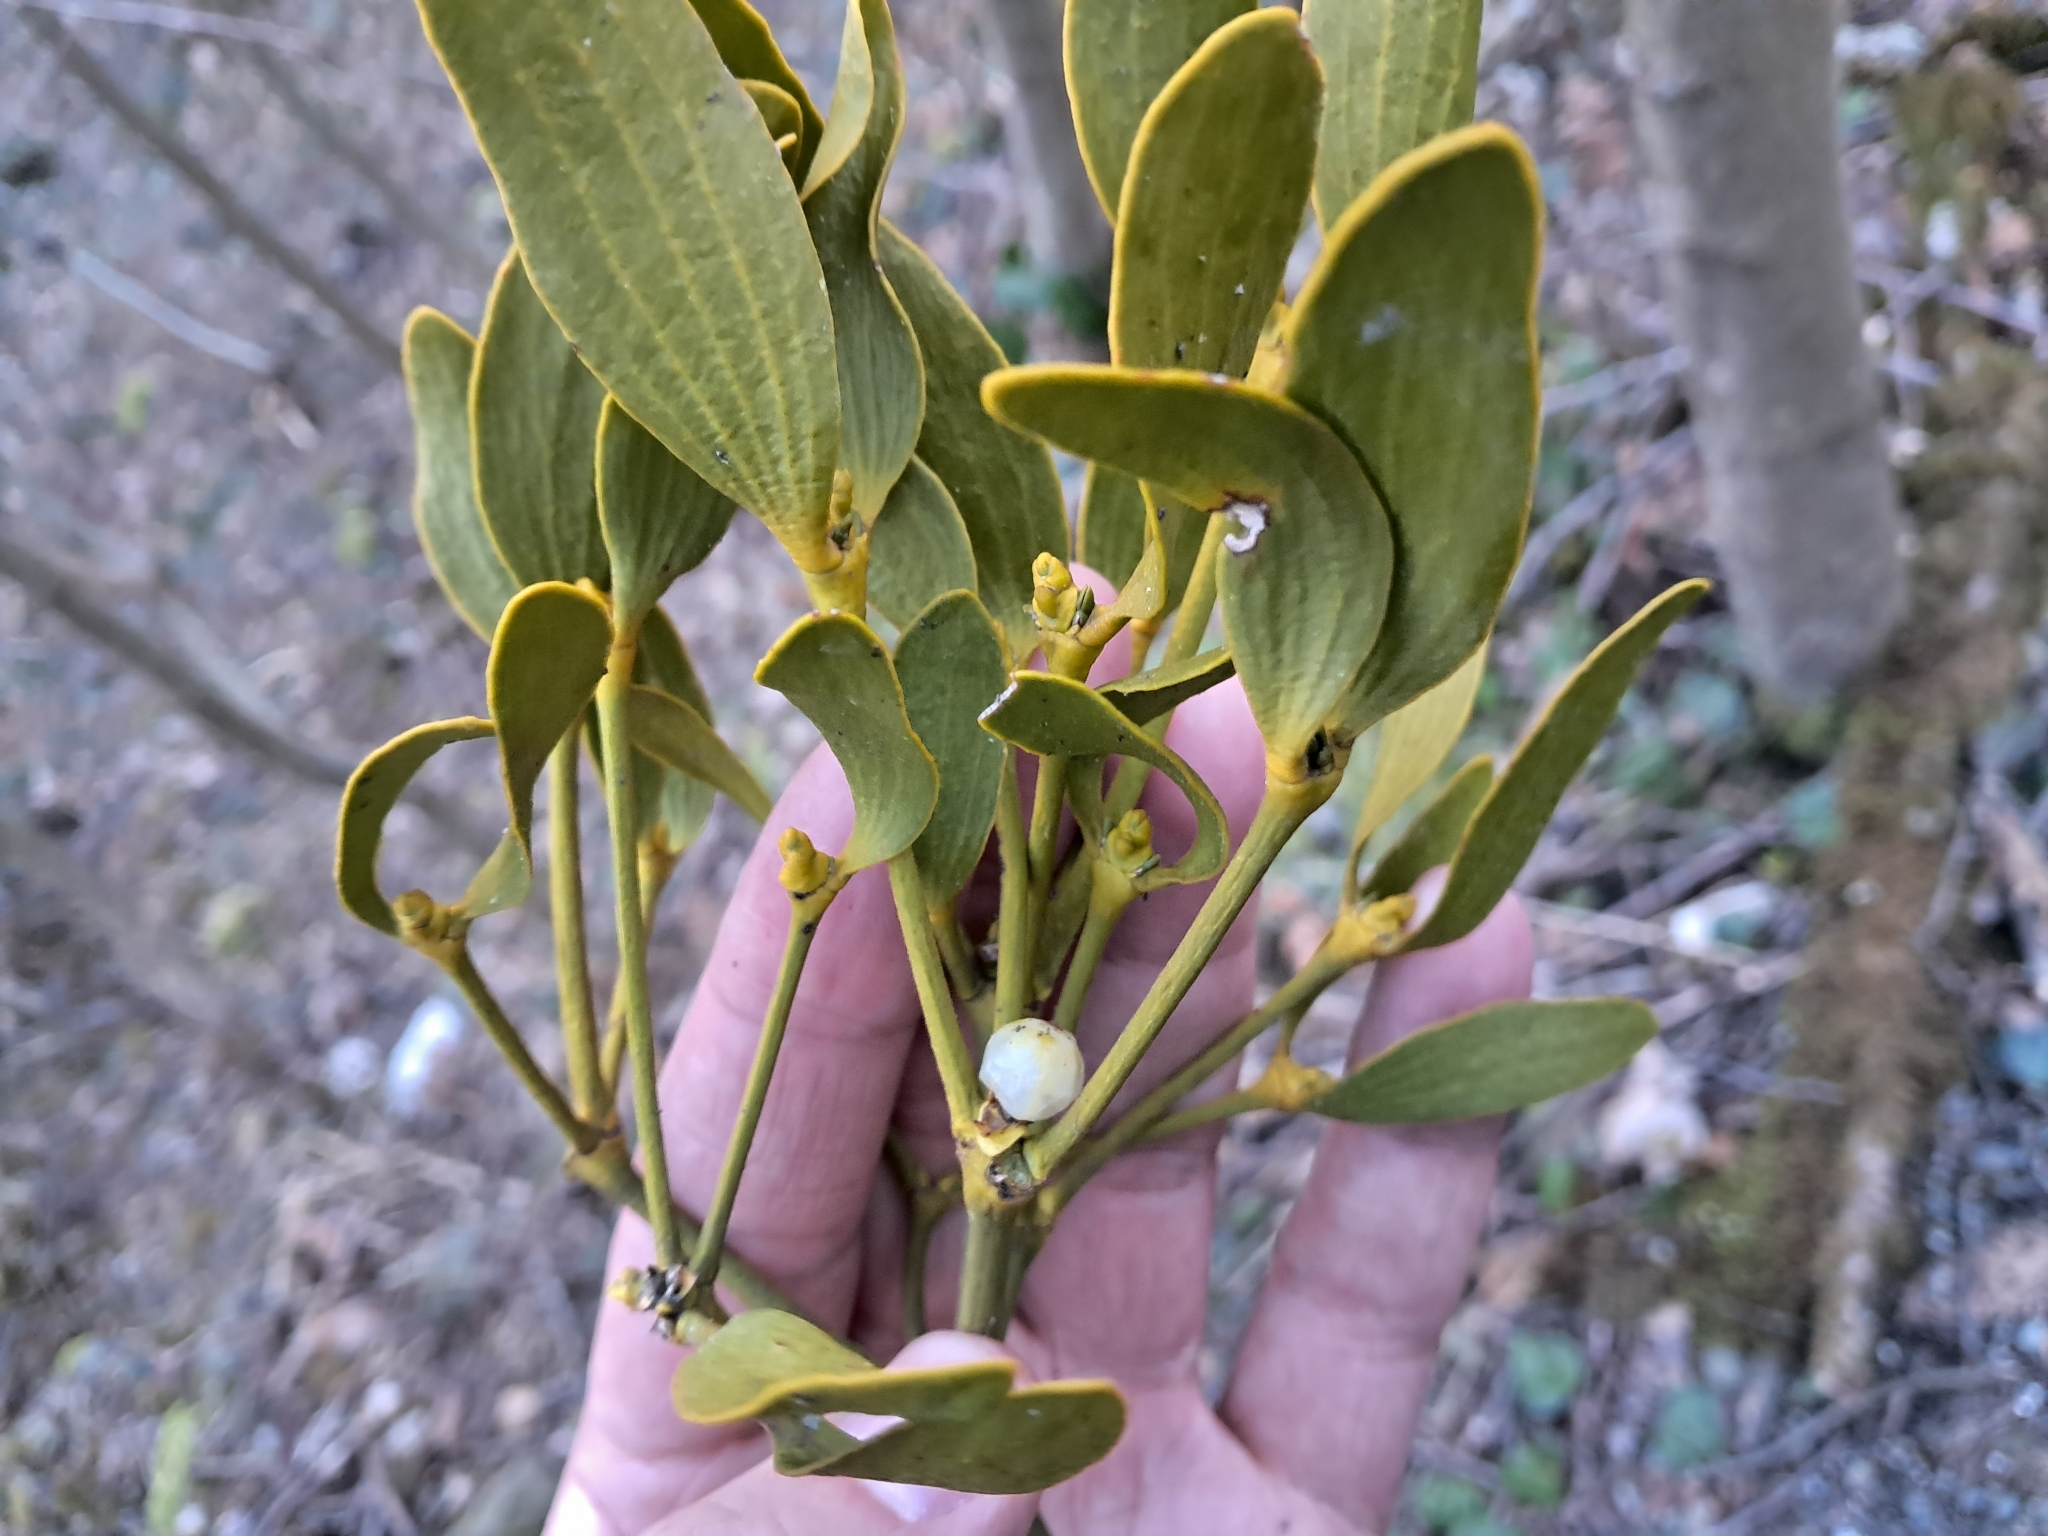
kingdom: Plantae
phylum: Tracheophyta
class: Magnoliopsida
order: Santalales
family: Viscaceae
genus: Viscum
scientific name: Viscum album
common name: Mistletoe
